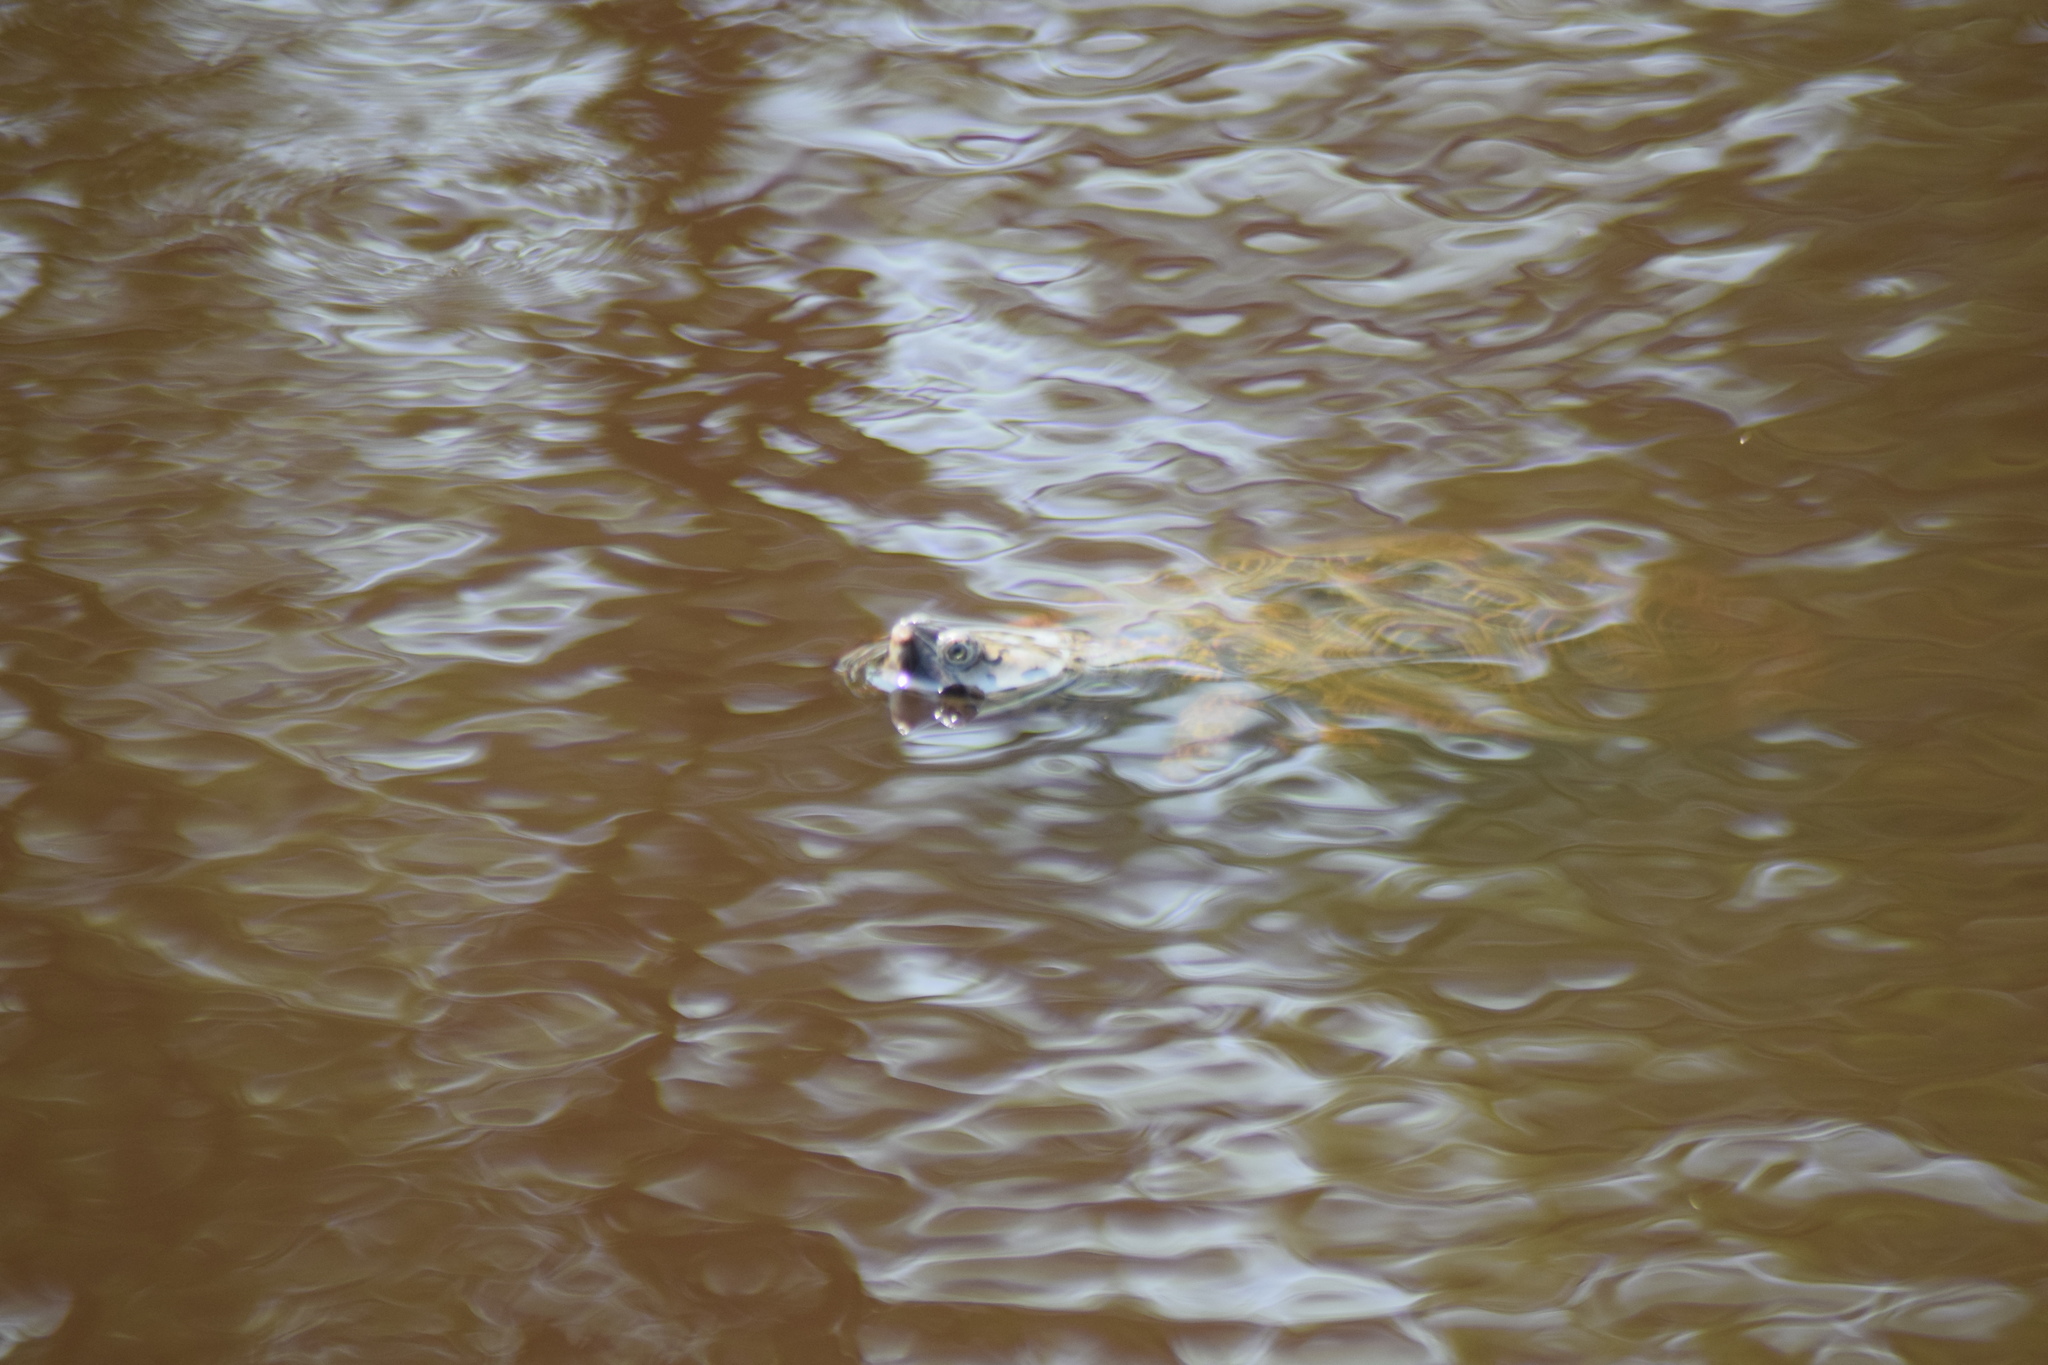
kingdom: Animalia
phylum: Chordata
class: Testudines
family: Emydidae
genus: Malaclemys
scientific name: Malaclemys terrapin
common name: Diamondback terrapin
